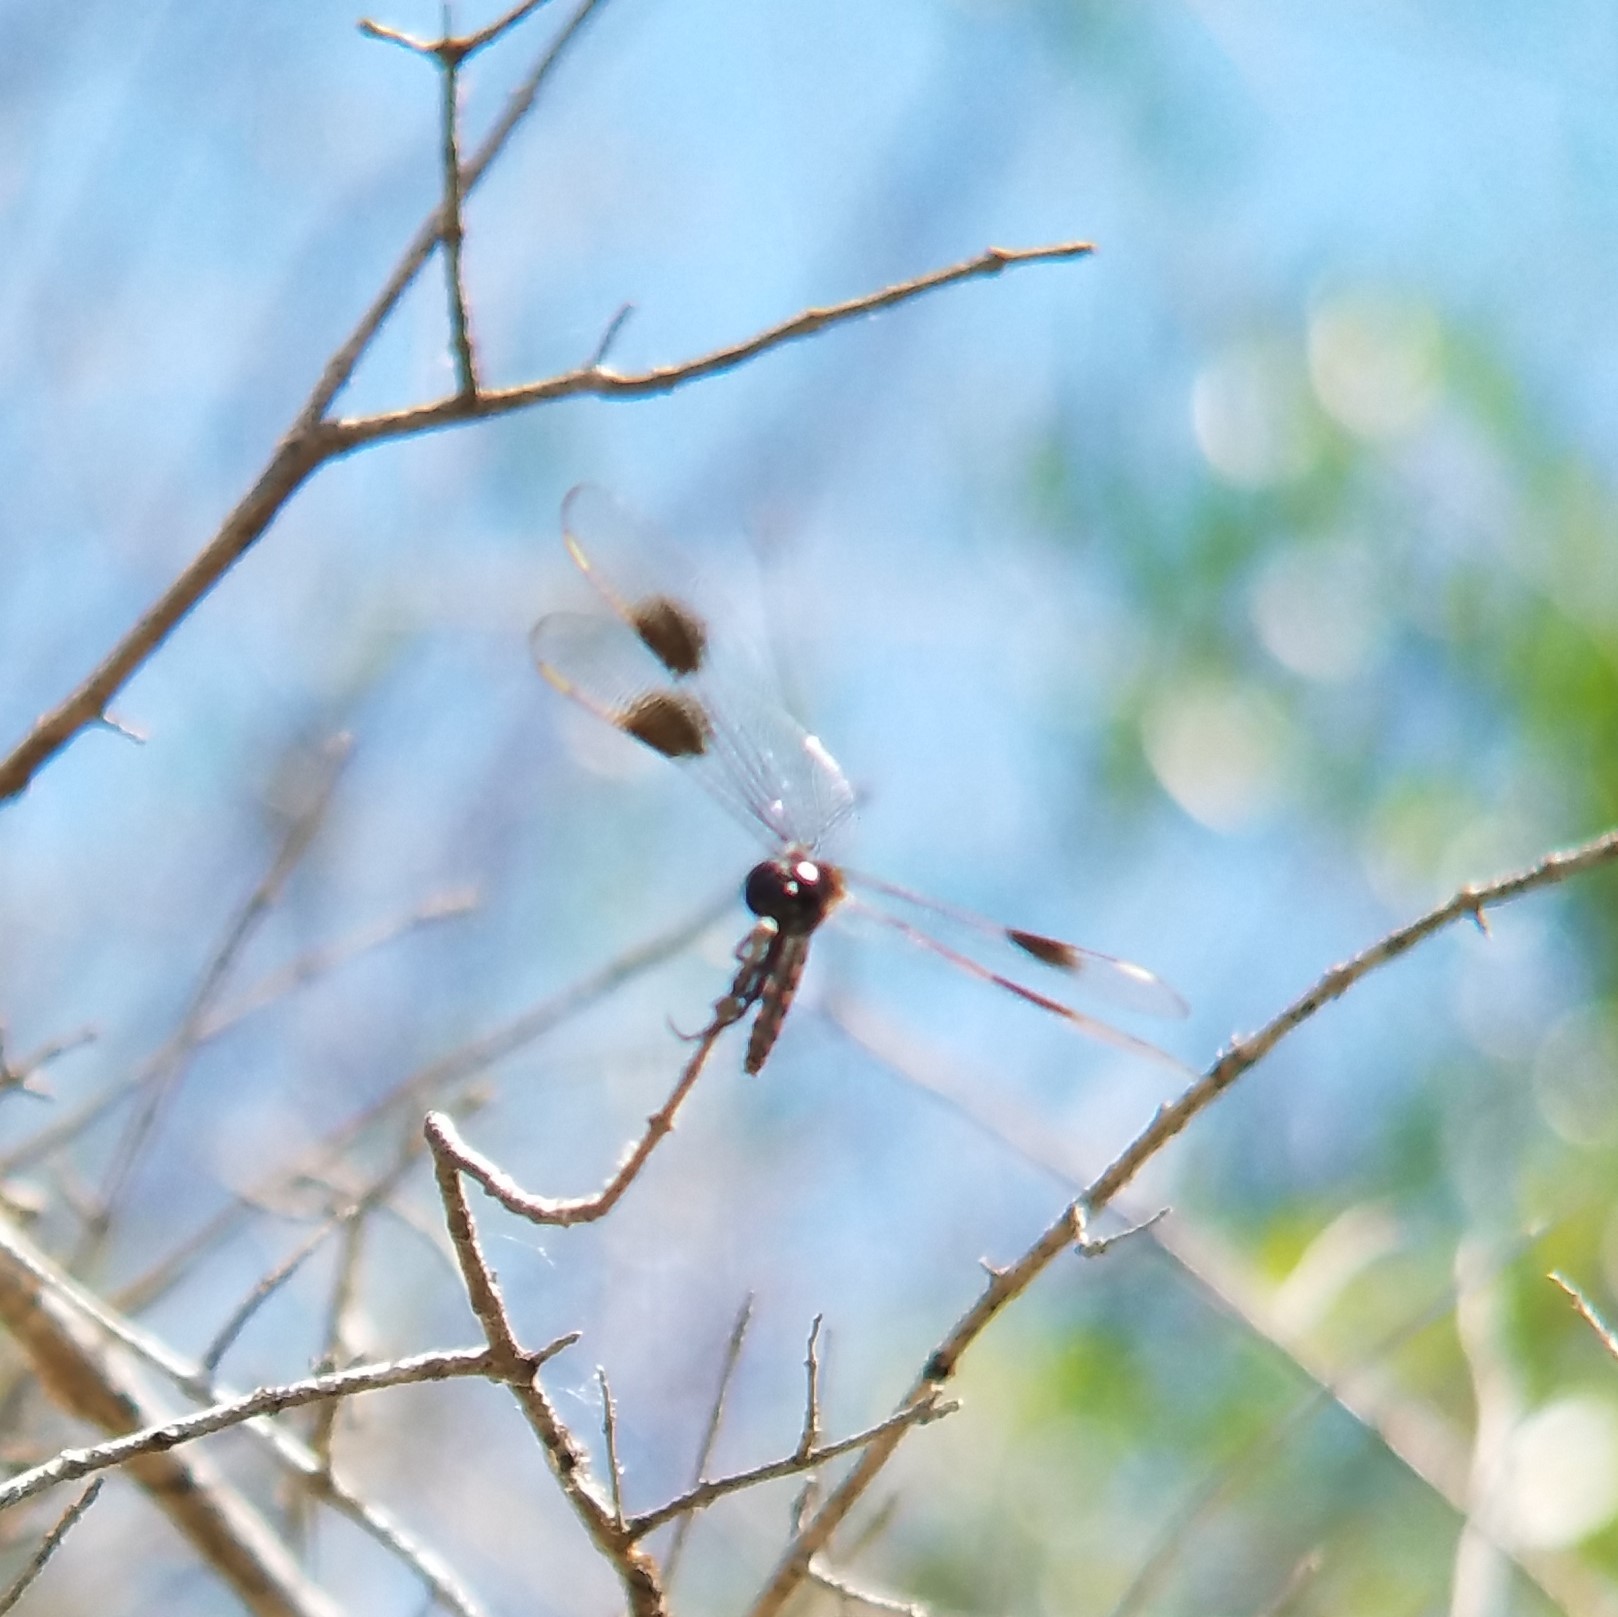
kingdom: Animalia
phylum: Arthropoda
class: Insecta
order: Odonata
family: Libellulidae
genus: Brachymesia
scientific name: Brachymesia gravida
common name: Four-spotted pennant
